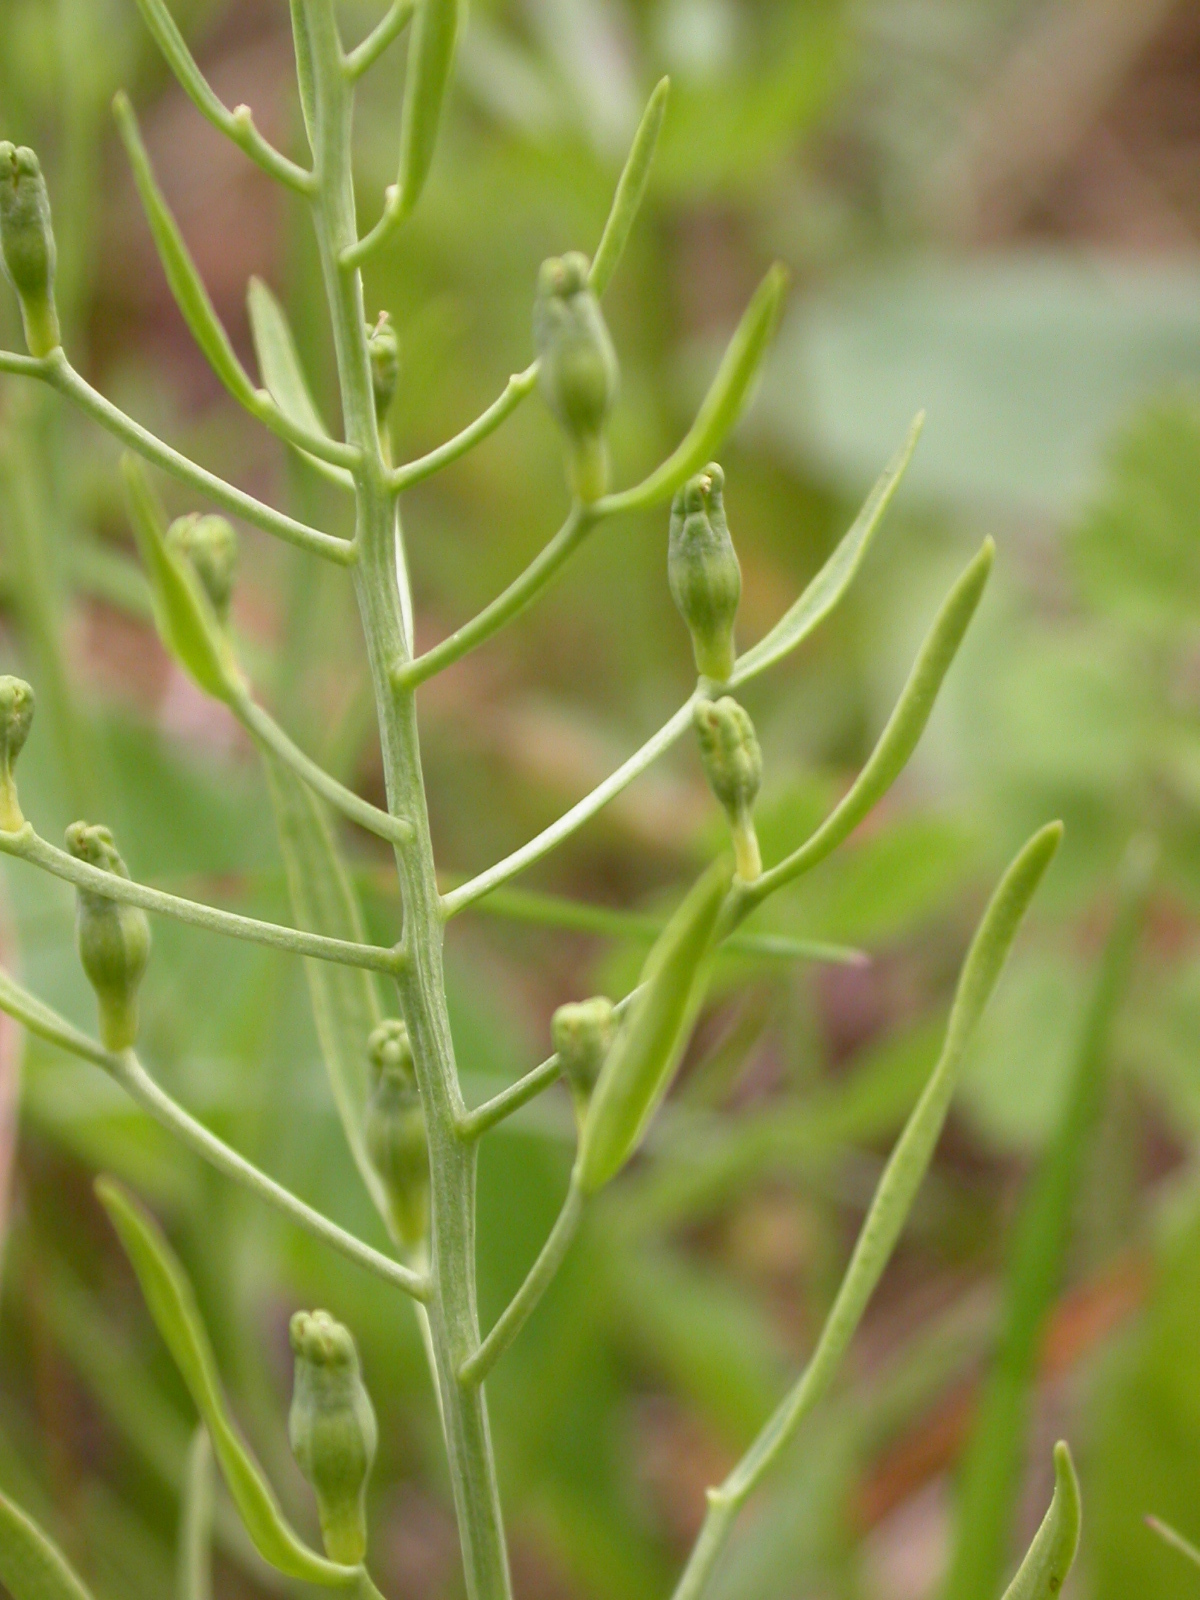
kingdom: Plantae
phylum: Tracheophyta
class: Magnoliopsida
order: Santalales
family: Thesiaceae
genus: Thesium
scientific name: Thesium ebracteatum
